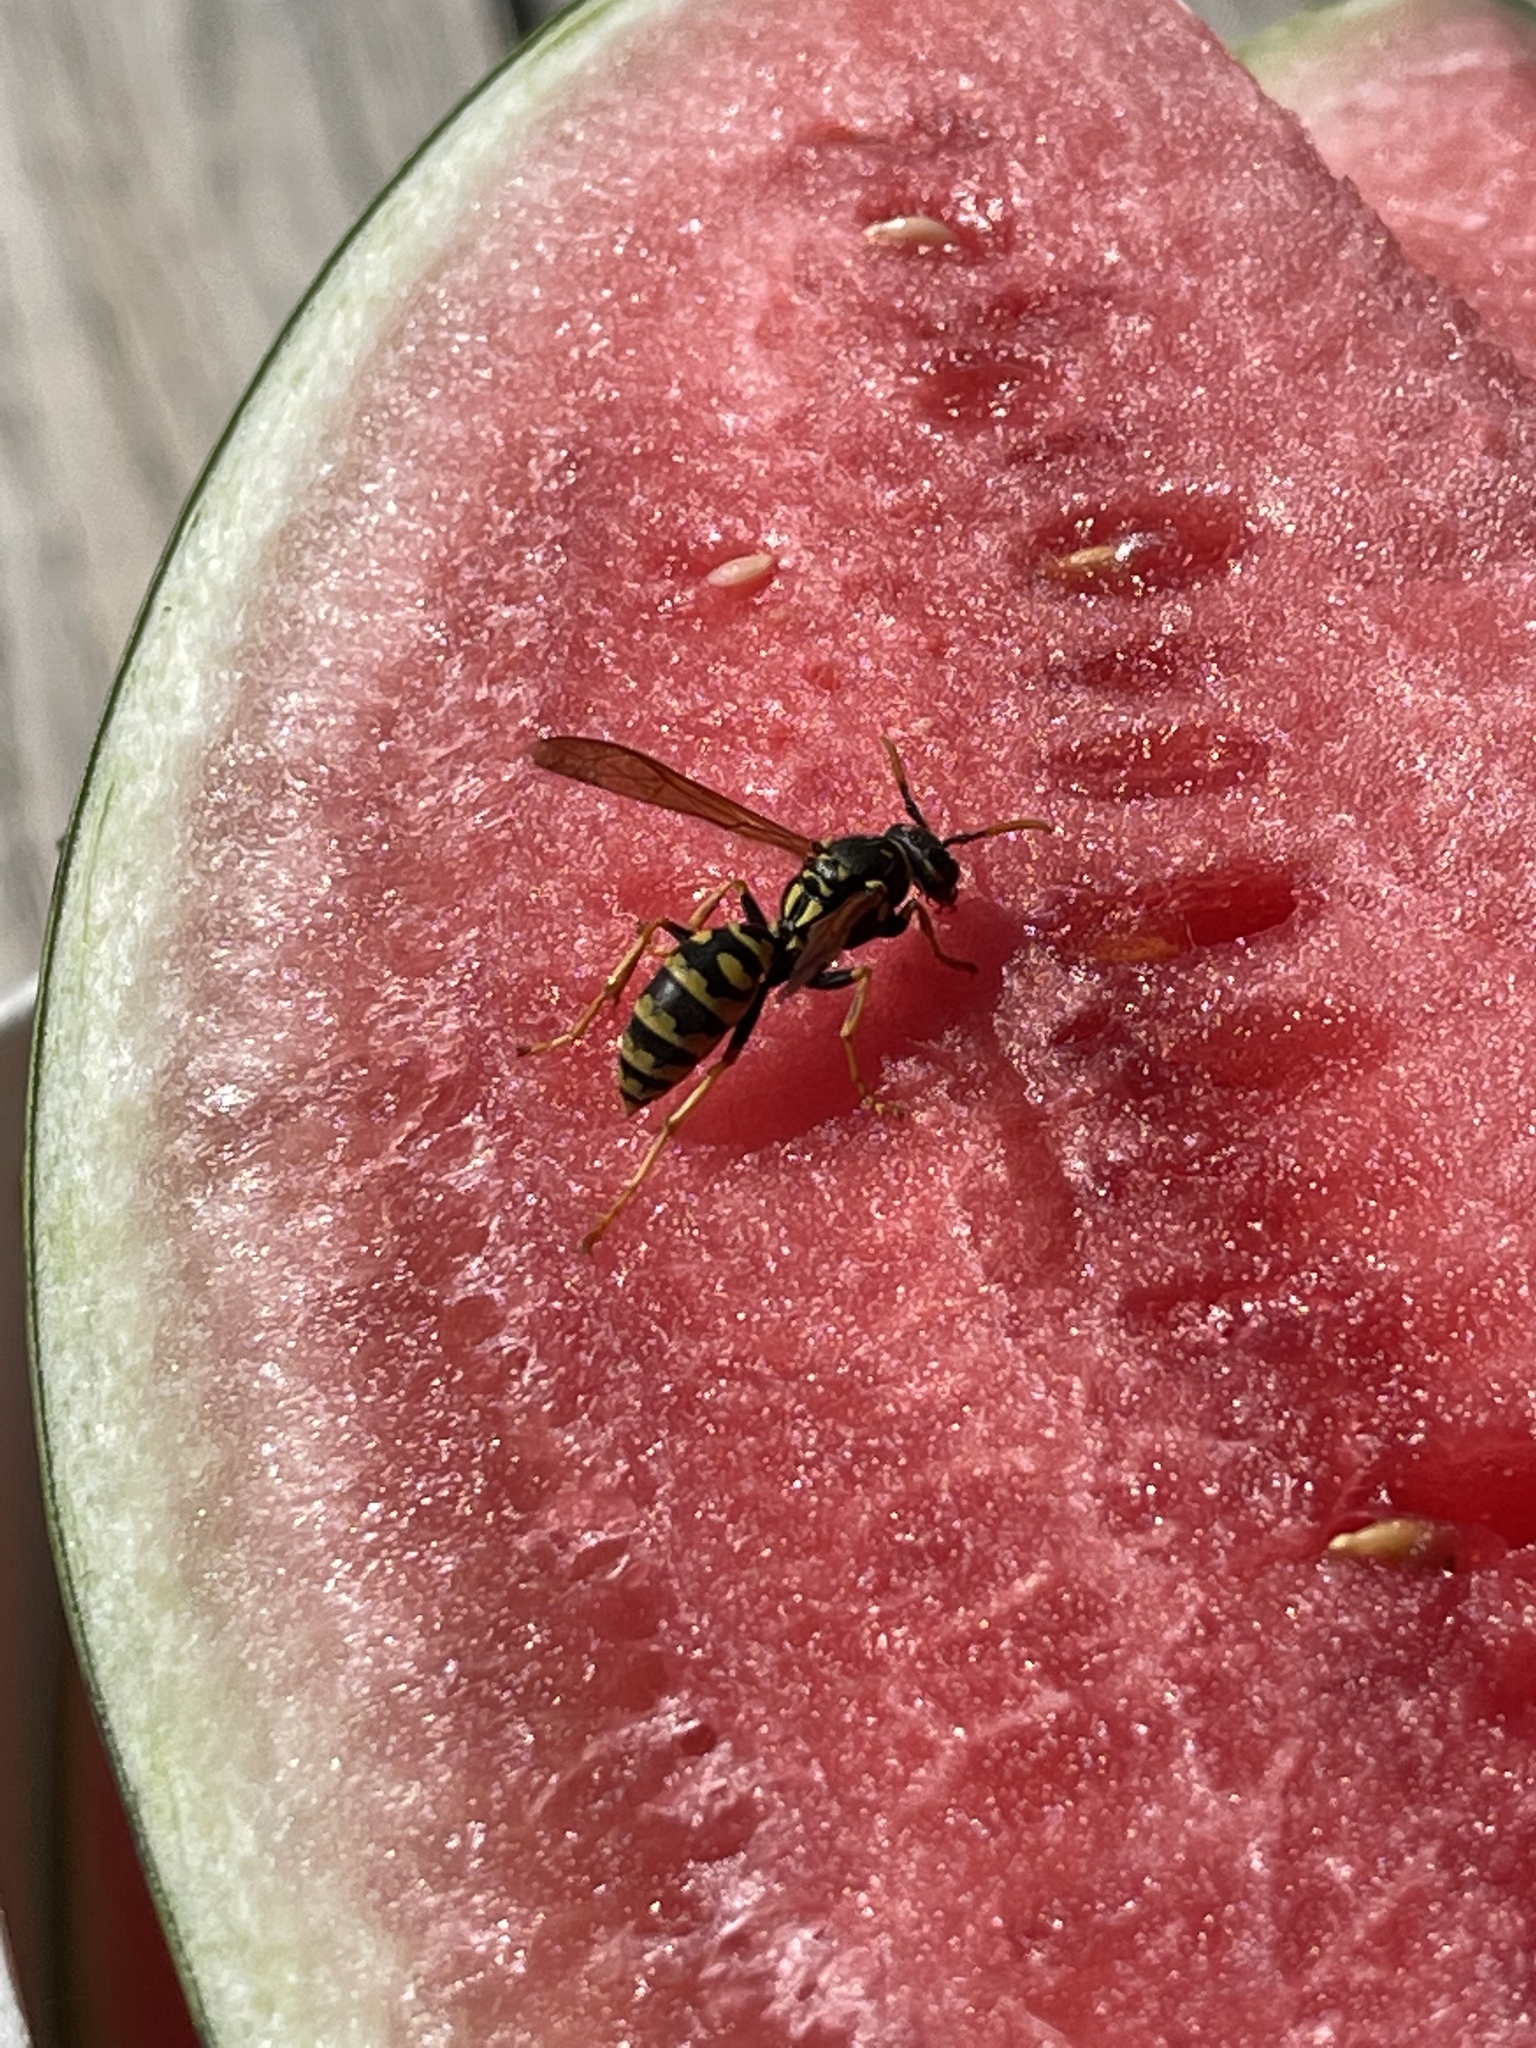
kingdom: Animalia
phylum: Arthropoda
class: Insecta
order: Hymenoptera
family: Eumenidae
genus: Polistes
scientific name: Polistes dominula
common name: Paper wasp
